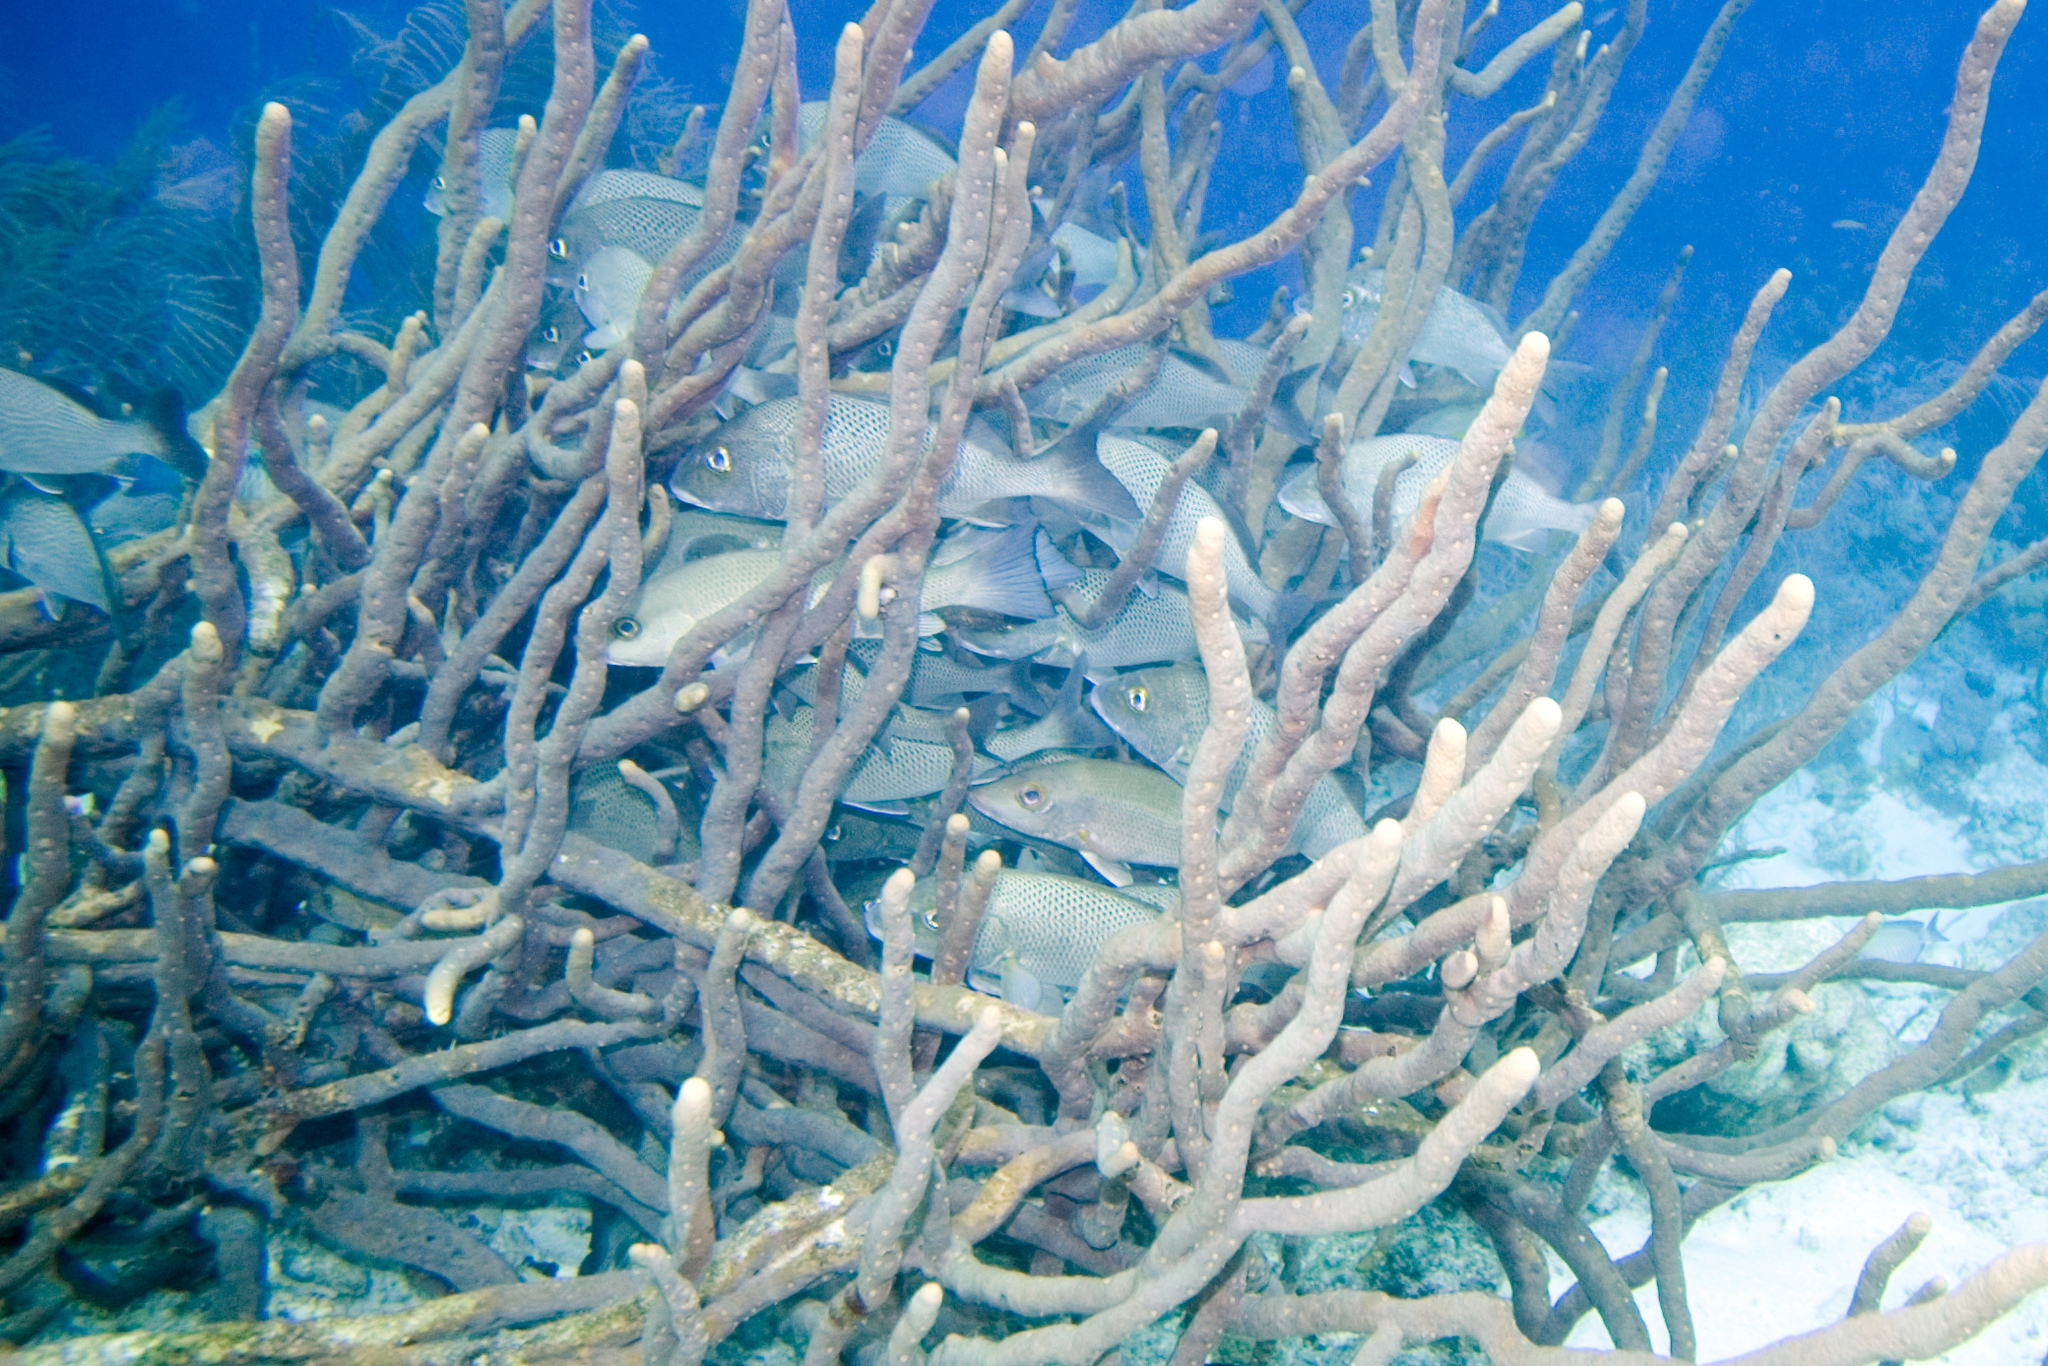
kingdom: Animalia
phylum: Porifera
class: Demospongiae
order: Verongiida
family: Aplysinidae
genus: Aplysina
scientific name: Aplysina cauliformis
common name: Branching candle sponge
